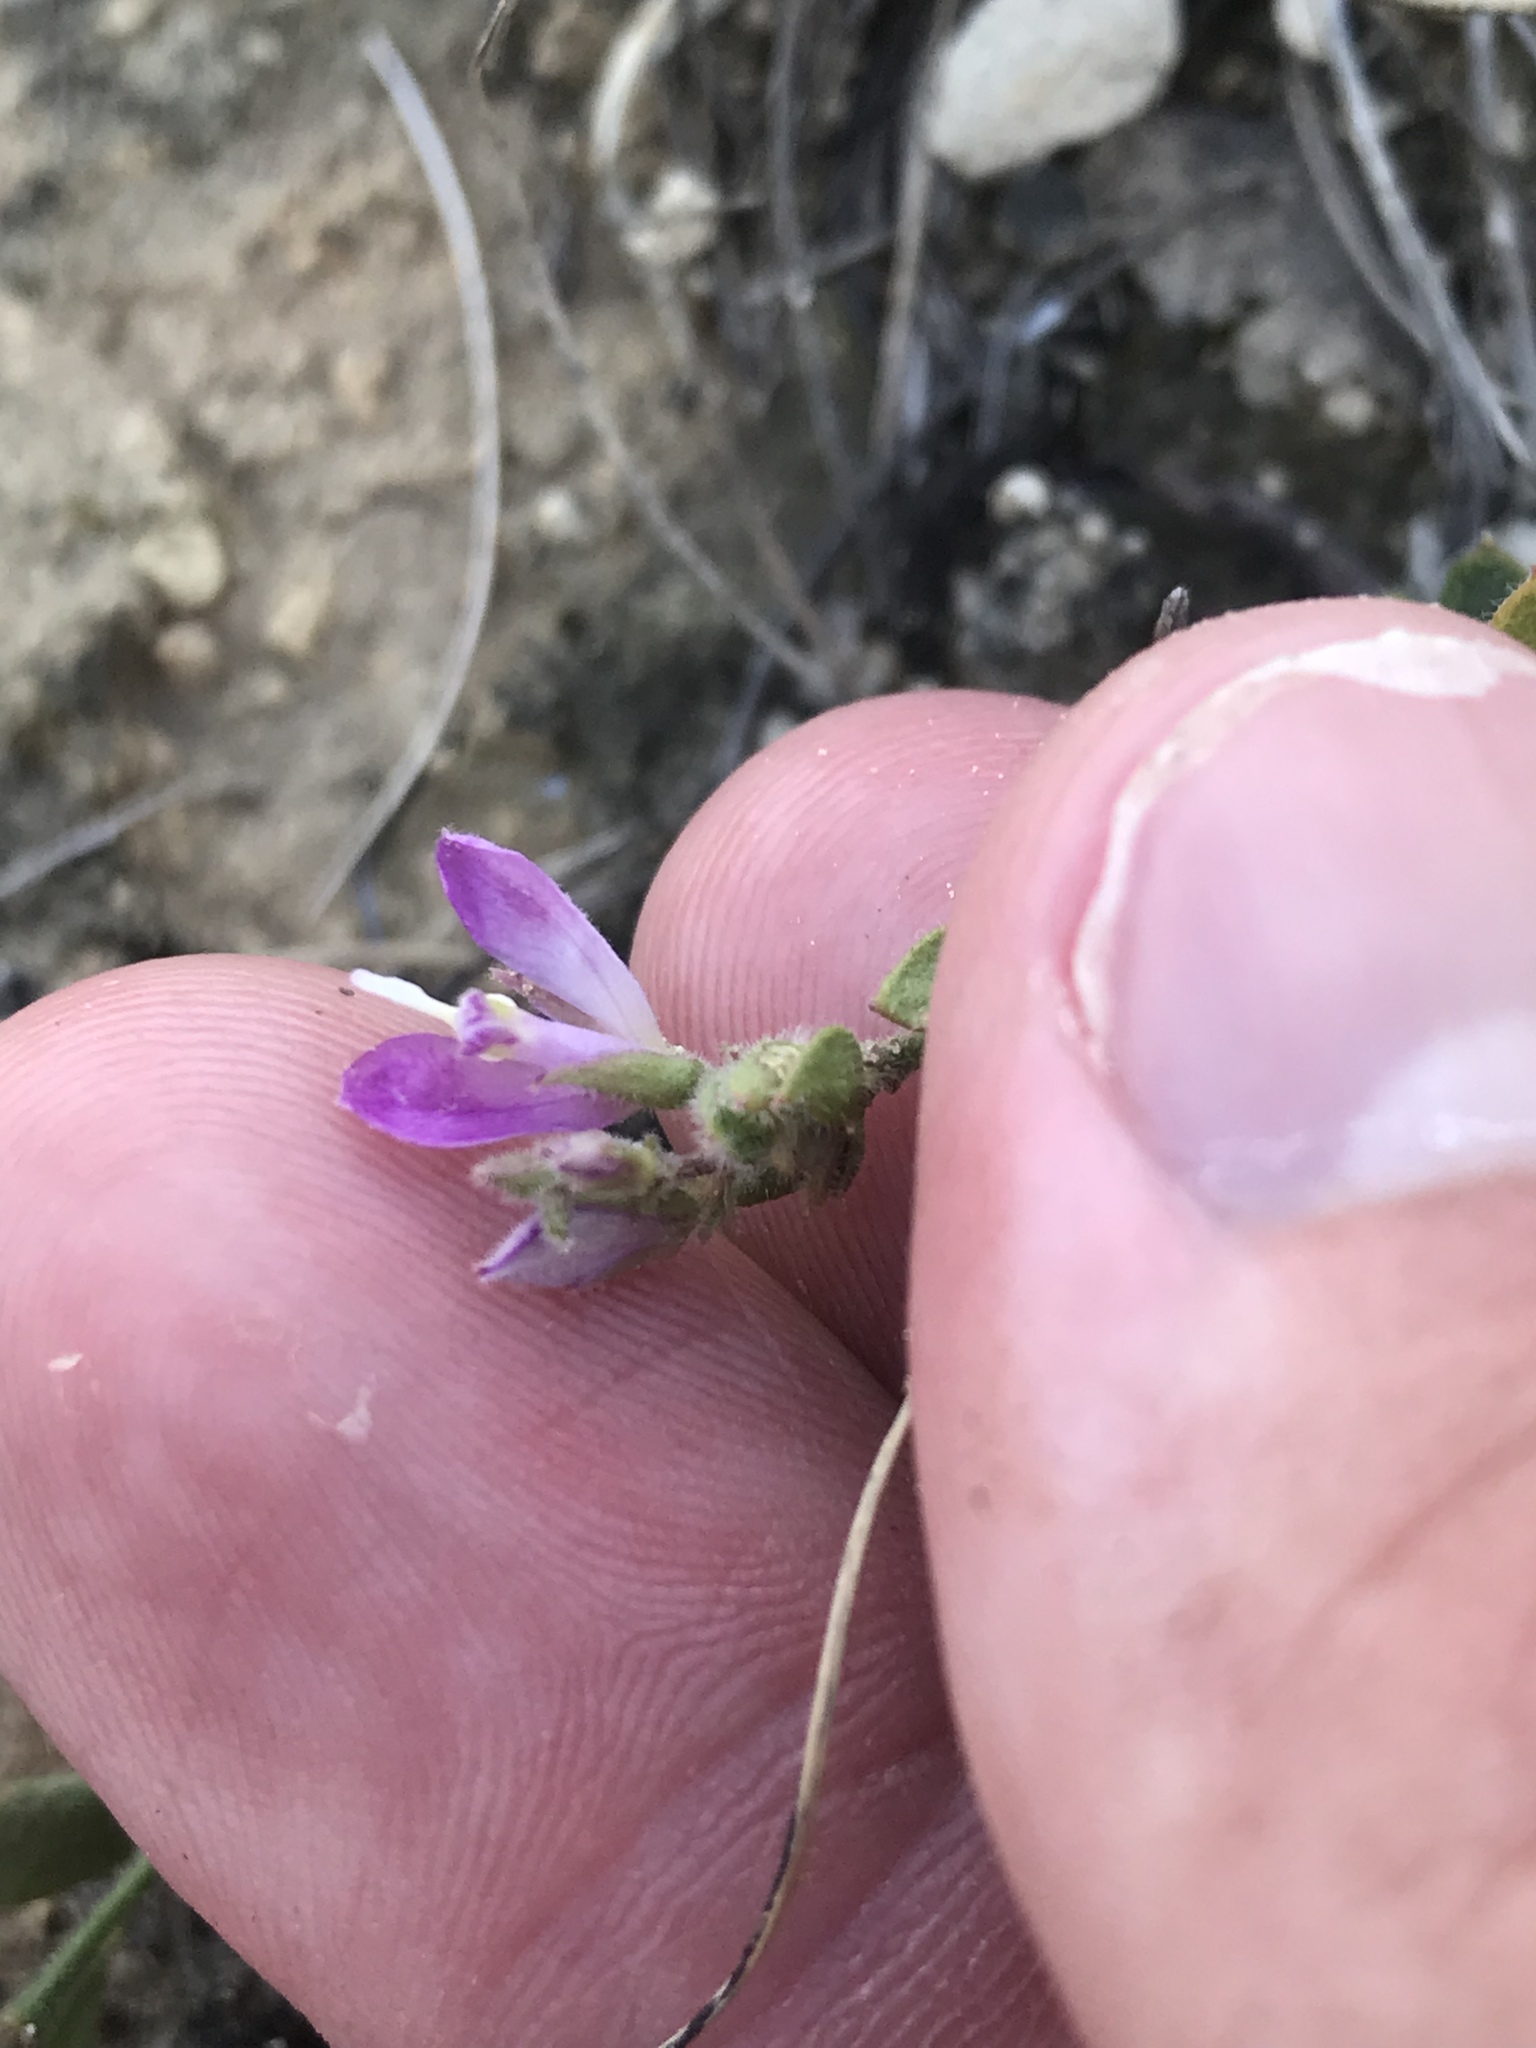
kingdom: Plantae
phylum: Tracheophyta
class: Magnoliopsida
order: Fabales
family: Polygalaceae
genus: Rhinotropis
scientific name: Rhinotropis lindheimeri
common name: Shrubby milkwort
